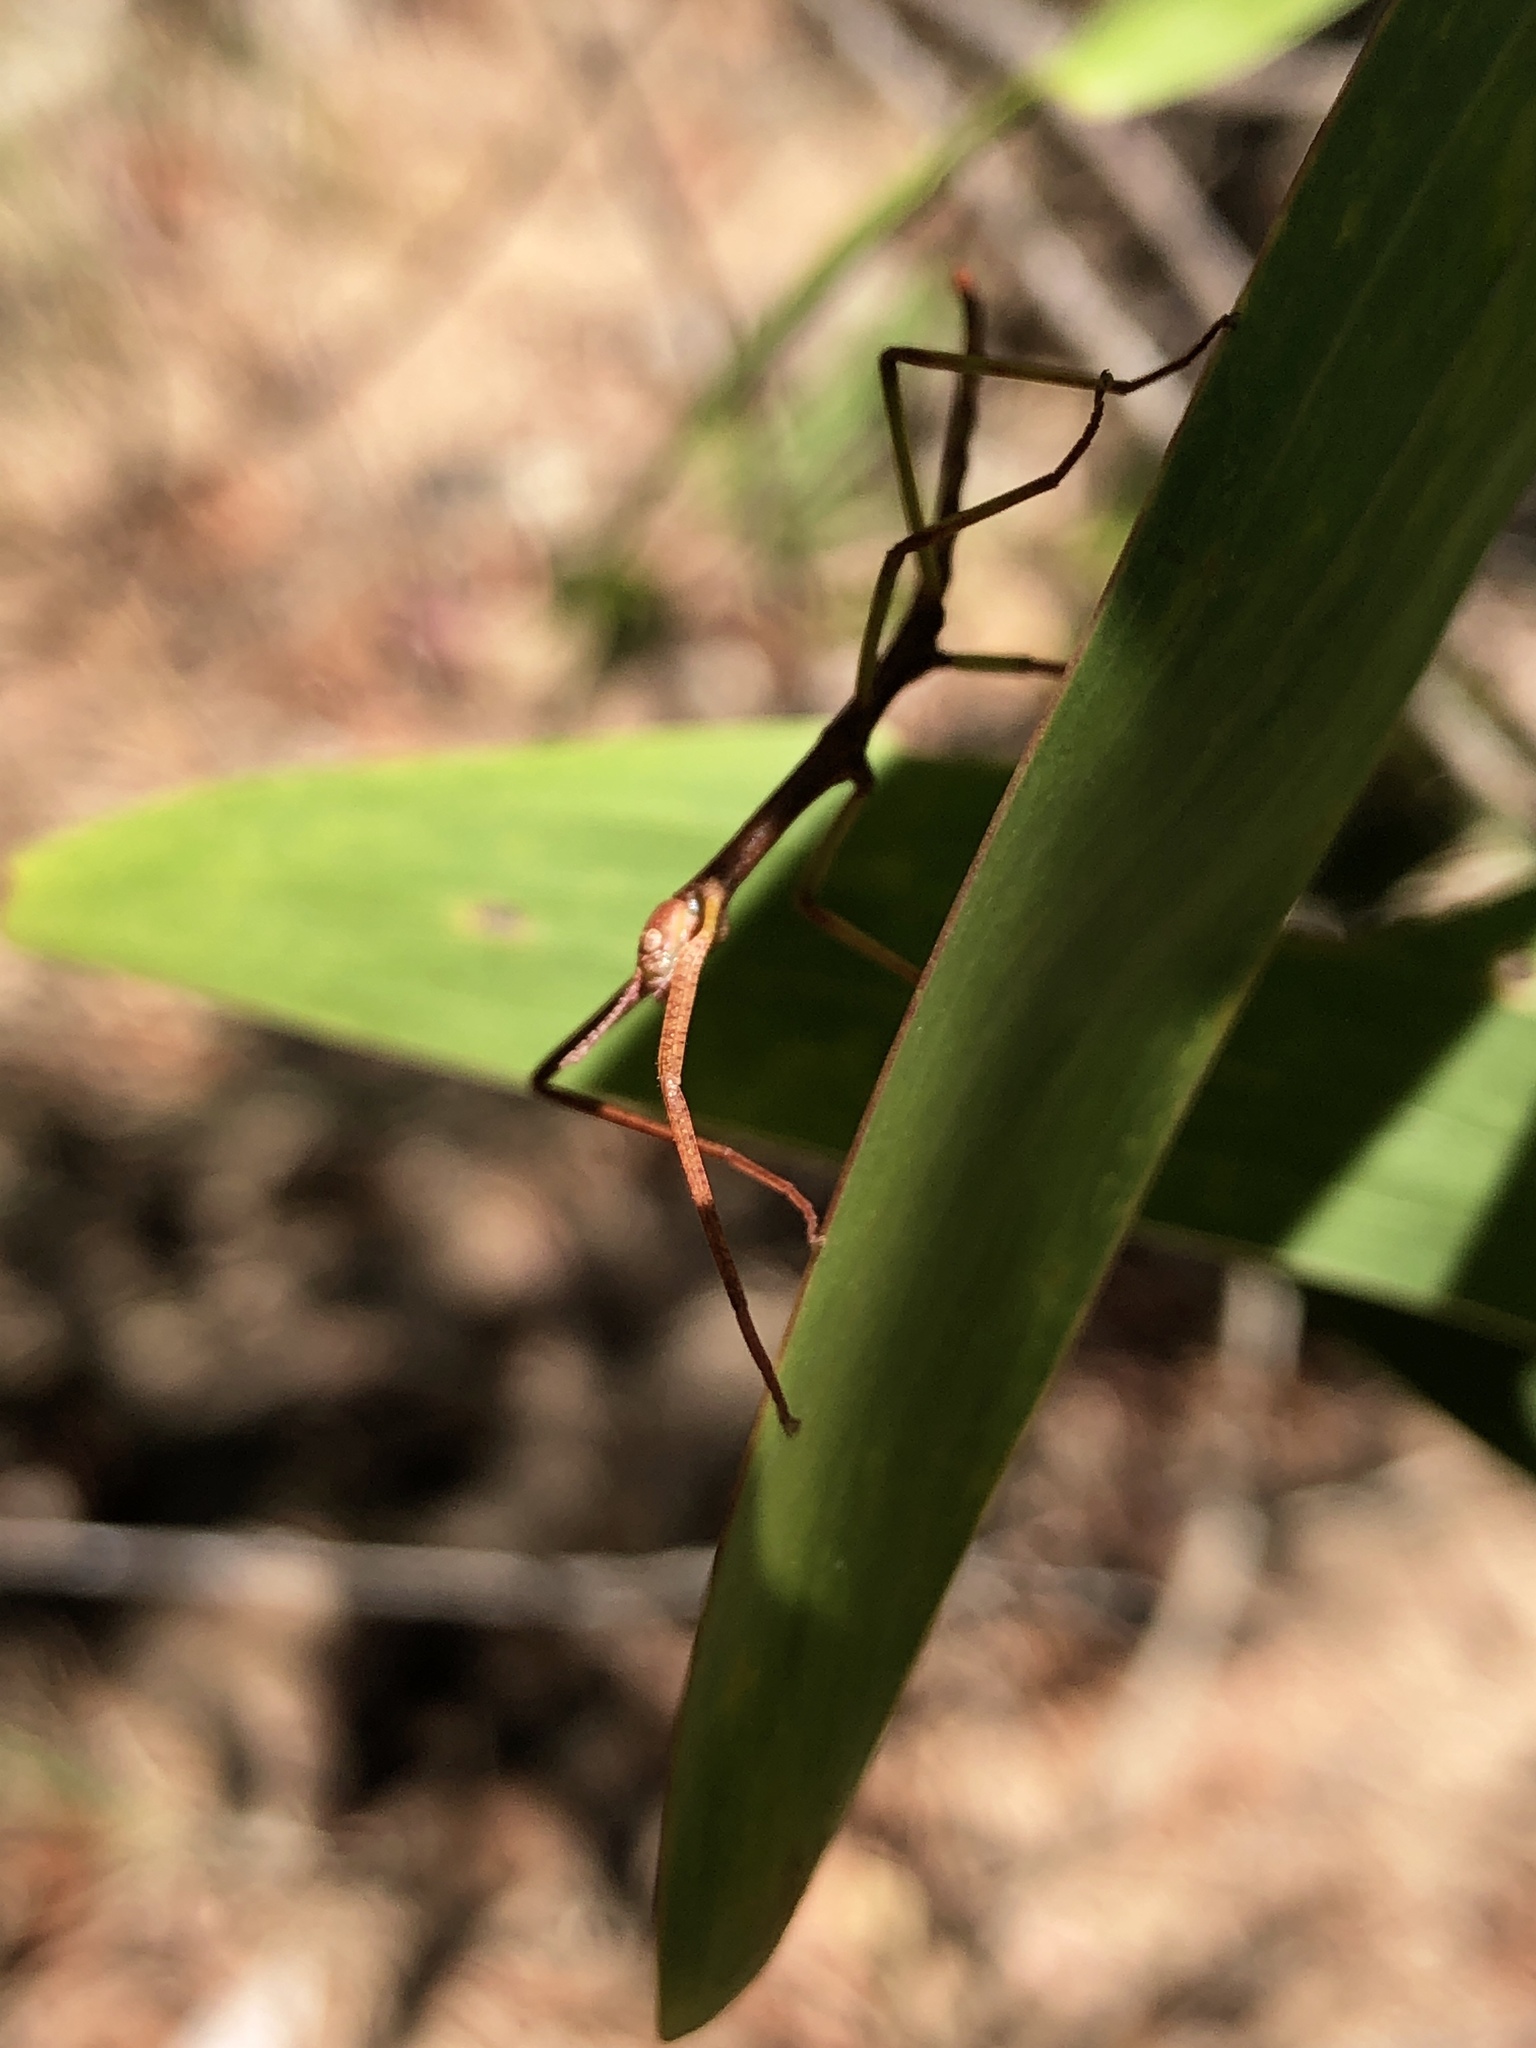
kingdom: Animalia
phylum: Arthropoda
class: Insecta
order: Phasmida
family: Phasmatidae
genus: Acrophylla
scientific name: Acrophylla wuelfingi
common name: Wülfing's stick insect
